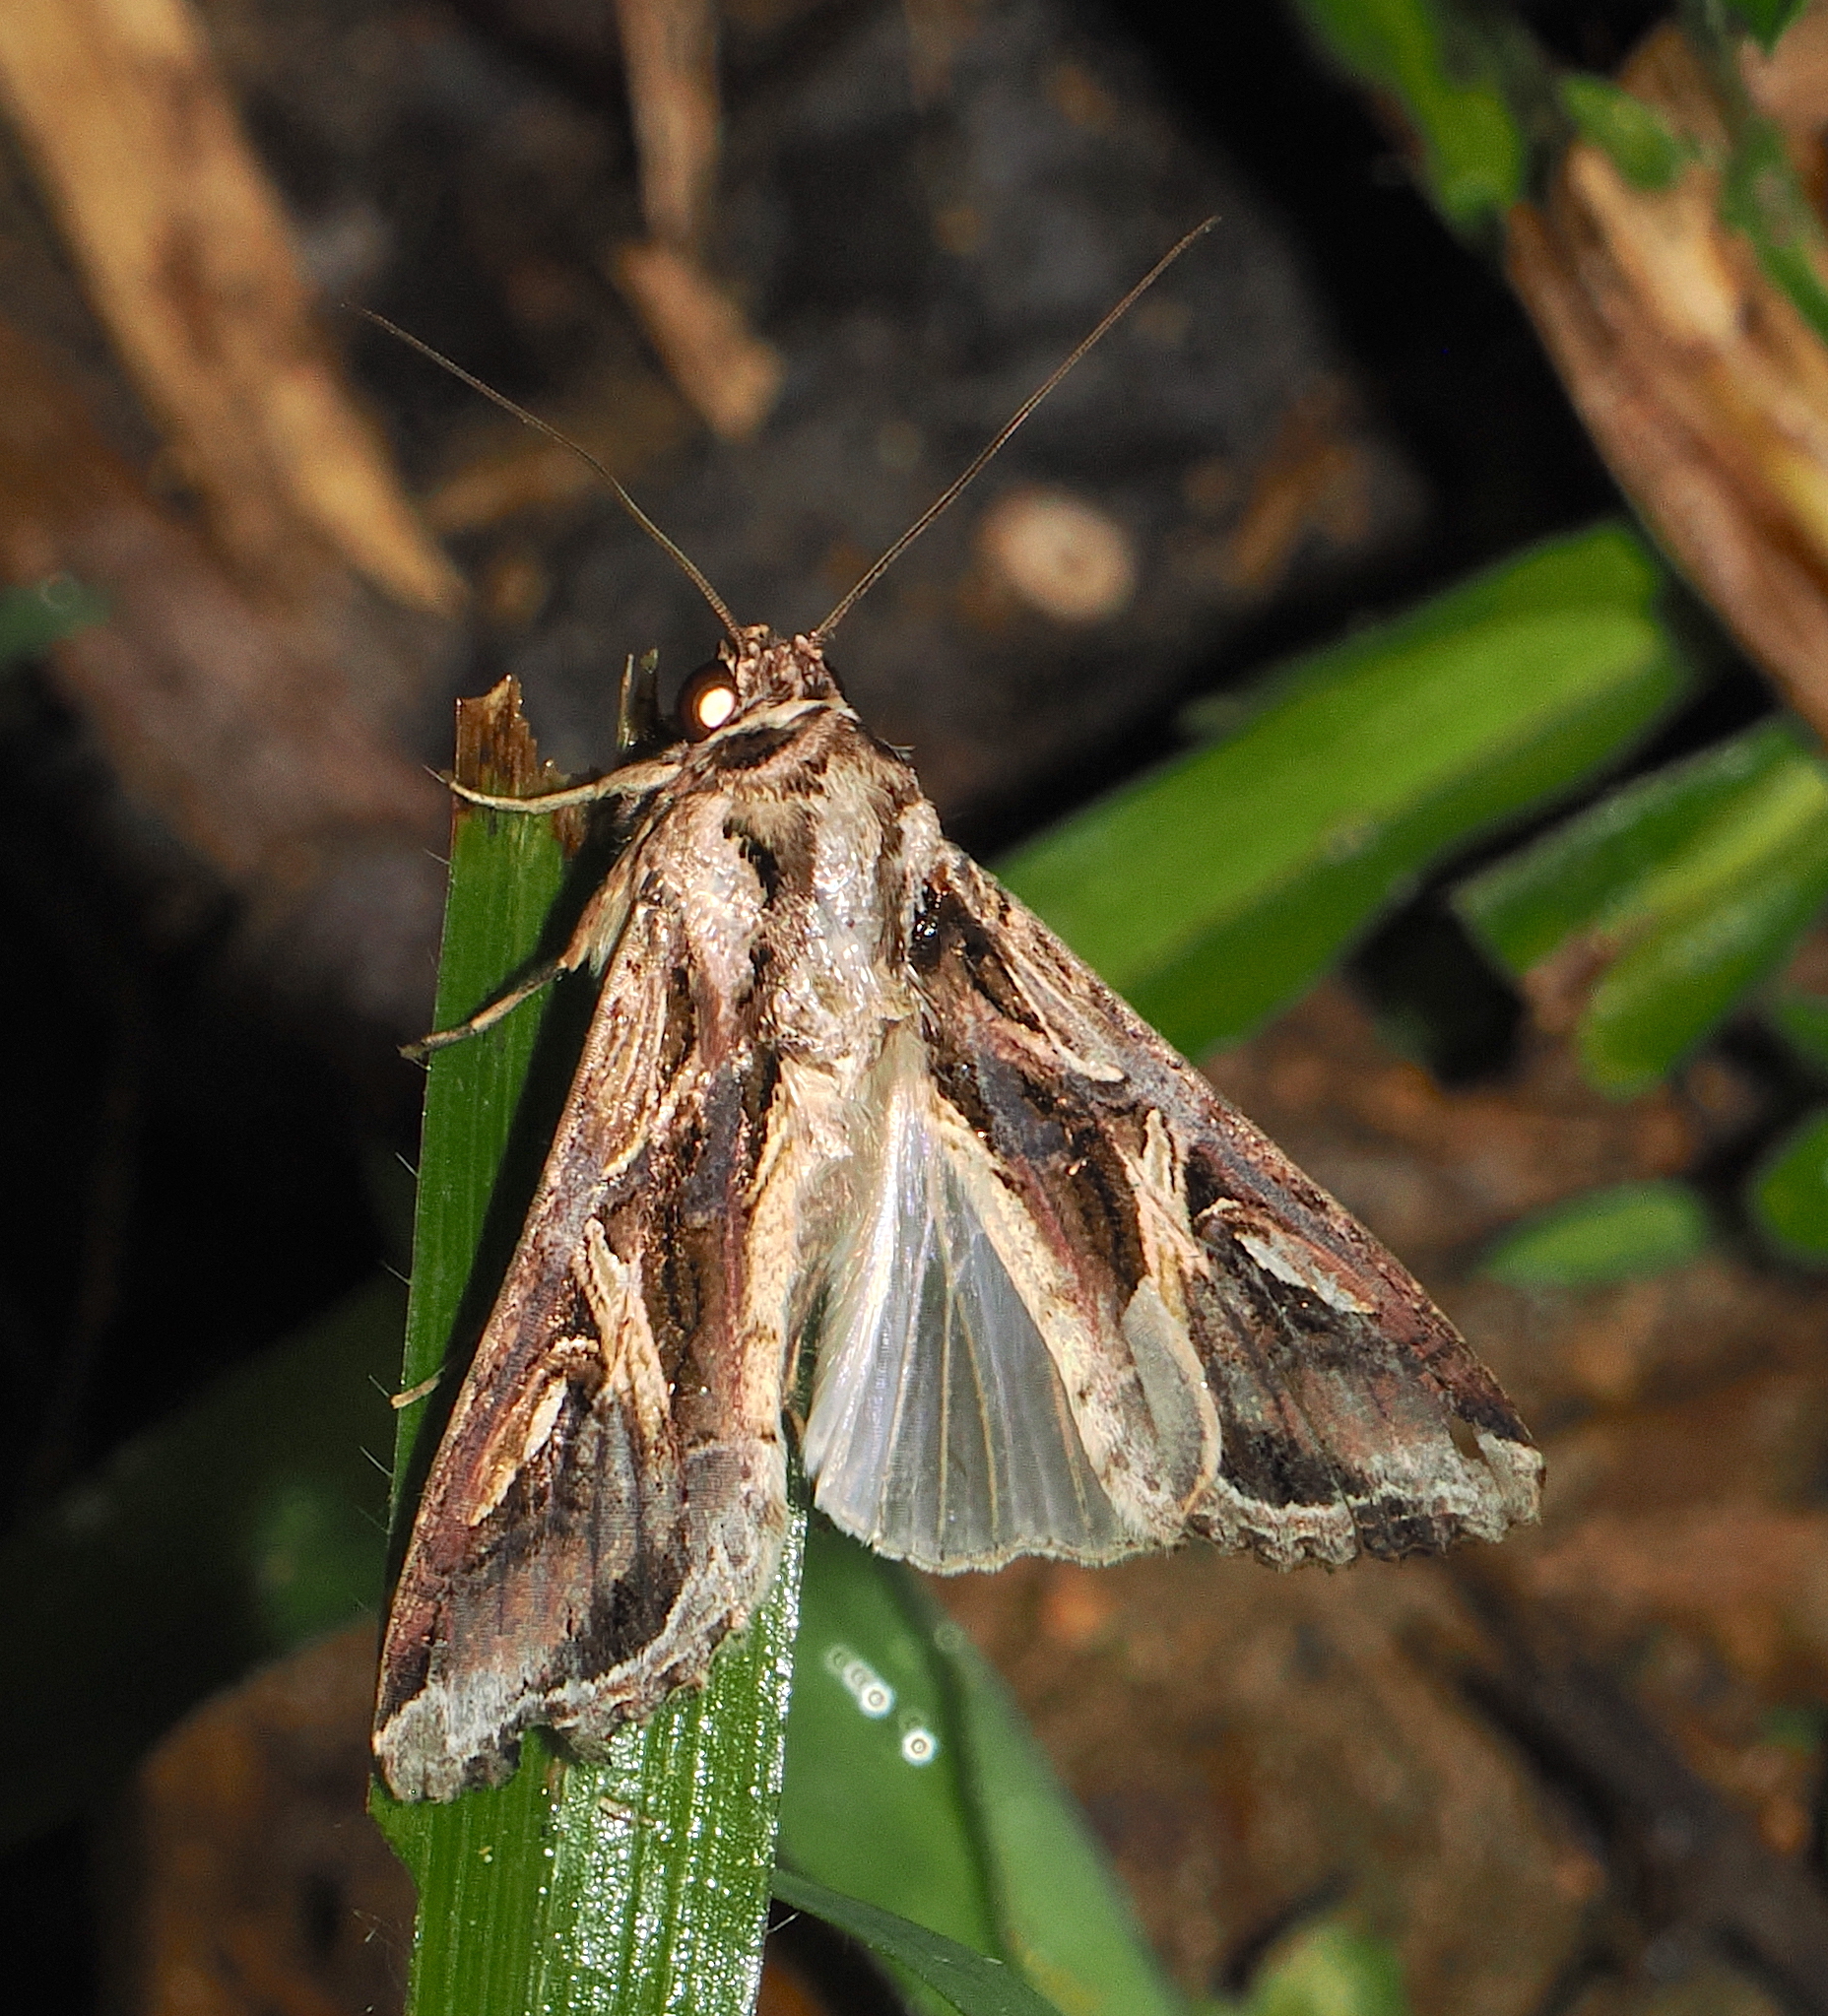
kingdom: Animalia
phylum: Arthropoda
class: Insecta
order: Lepidoptera
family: Noctuidae
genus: Spodoptera
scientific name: Spodoptera dolichos
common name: Sweetpotato armyworm
